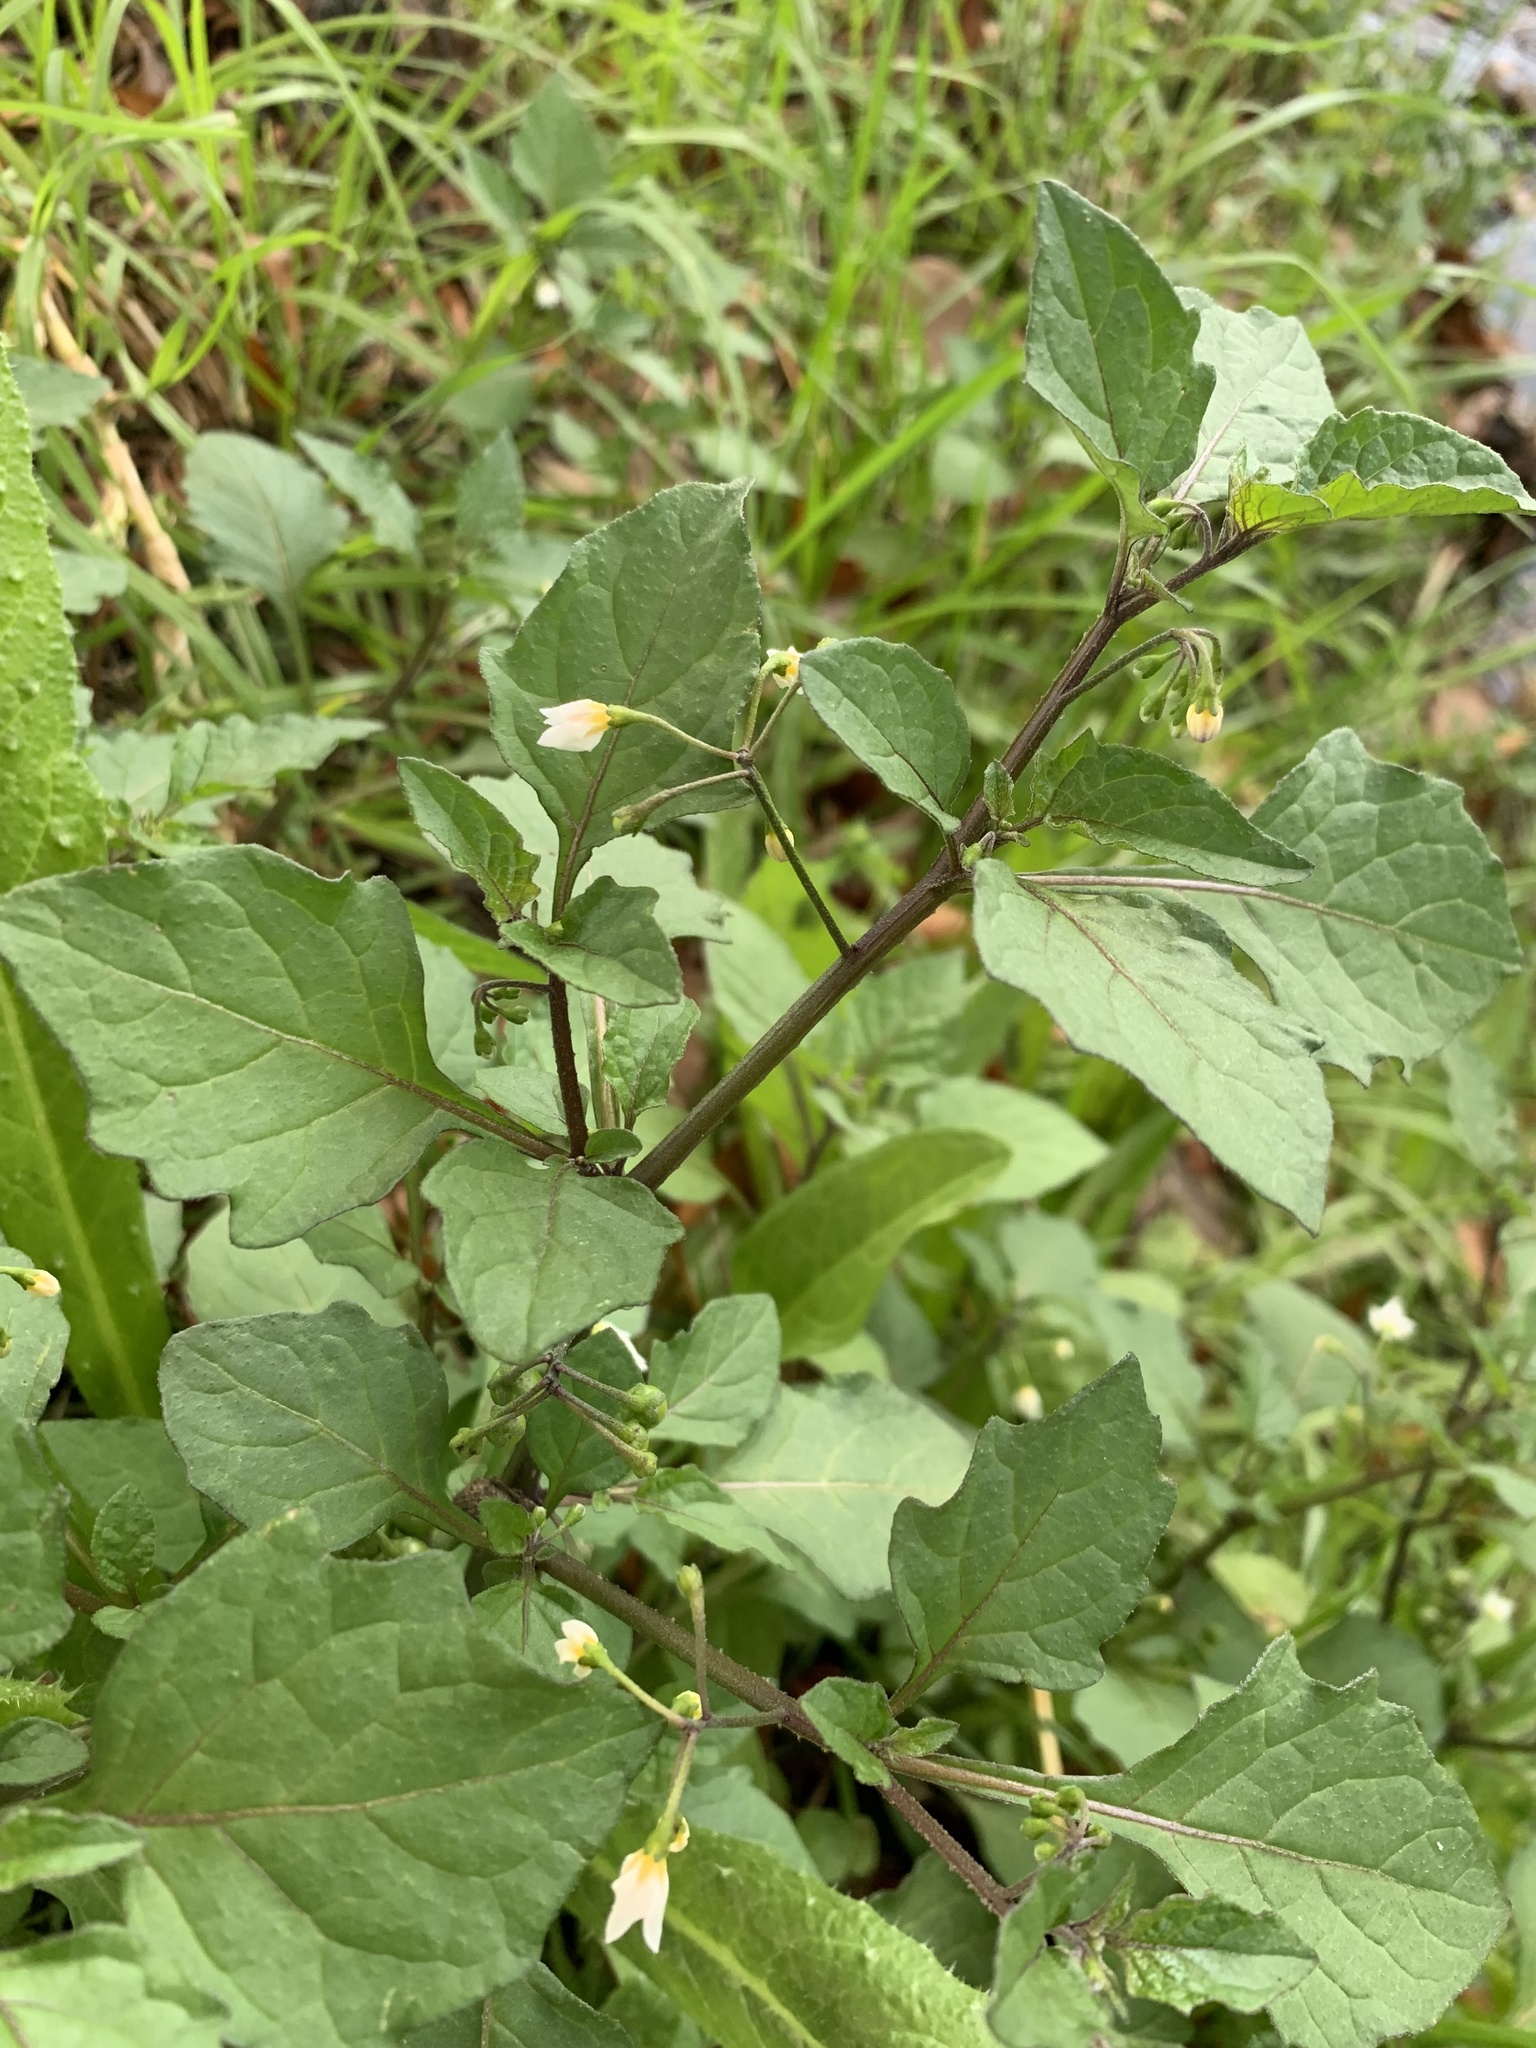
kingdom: Plantae
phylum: Tracheophyta
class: Magnoliopsida
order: Solanales
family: Solanaceae
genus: Solanum
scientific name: Solanum nigrum
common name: Black nightshade
